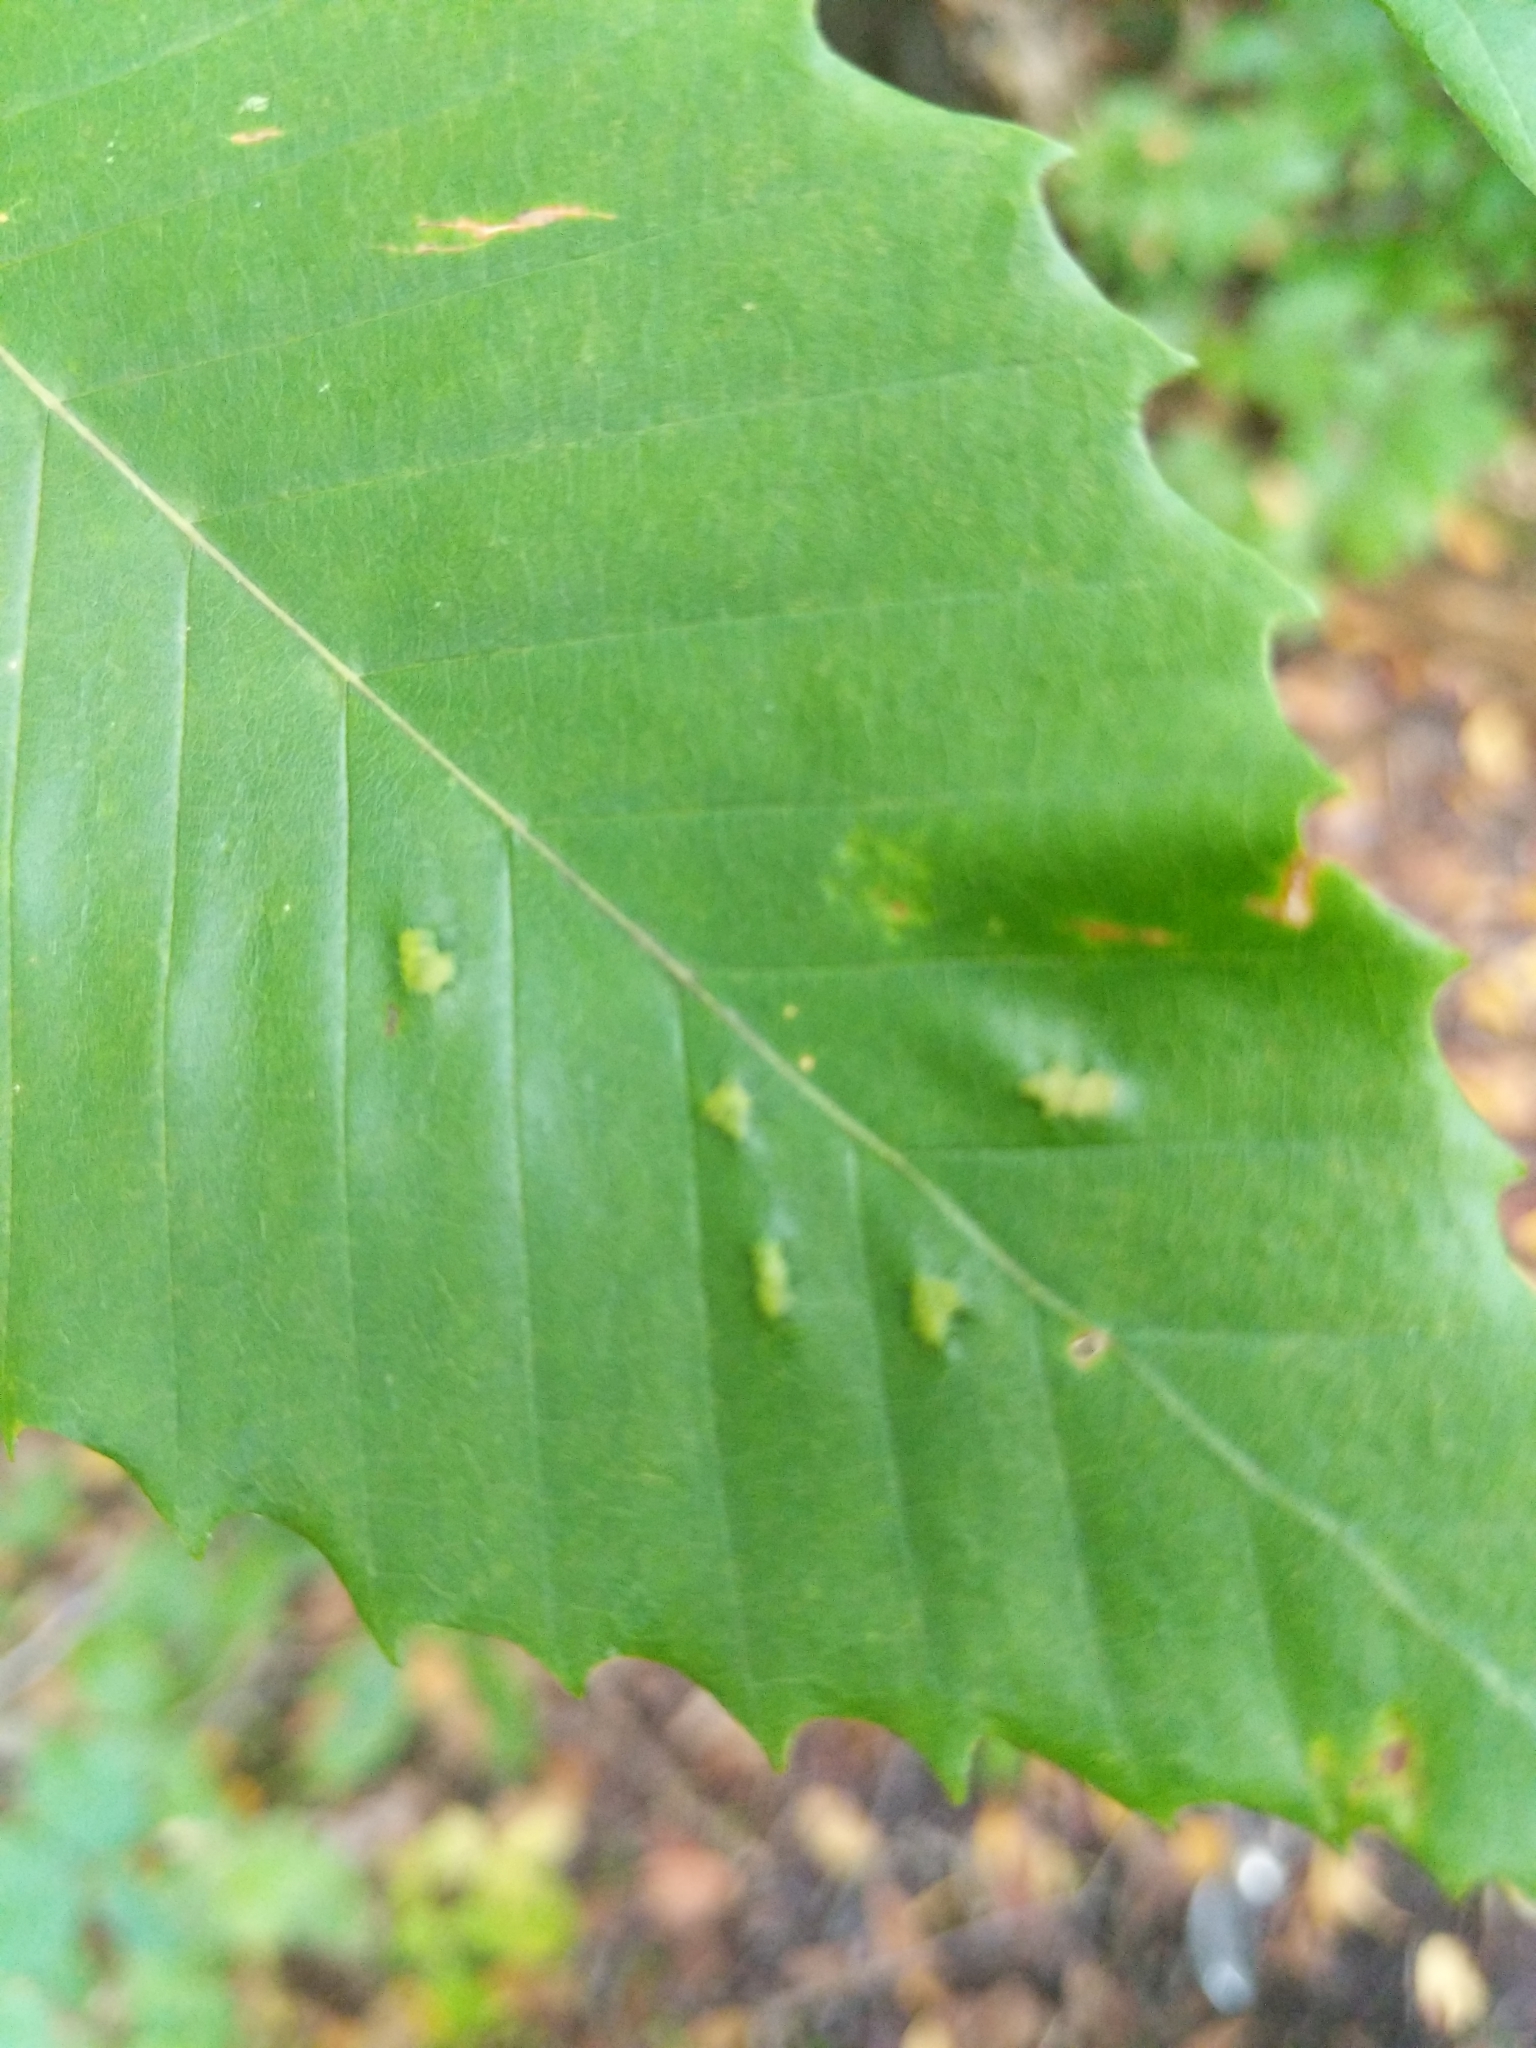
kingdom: Animalia
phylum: Arthropoda
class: Arachnida
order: Trombidiformes
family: Eriophyidae
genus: Acalitus
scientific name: Acalitus
